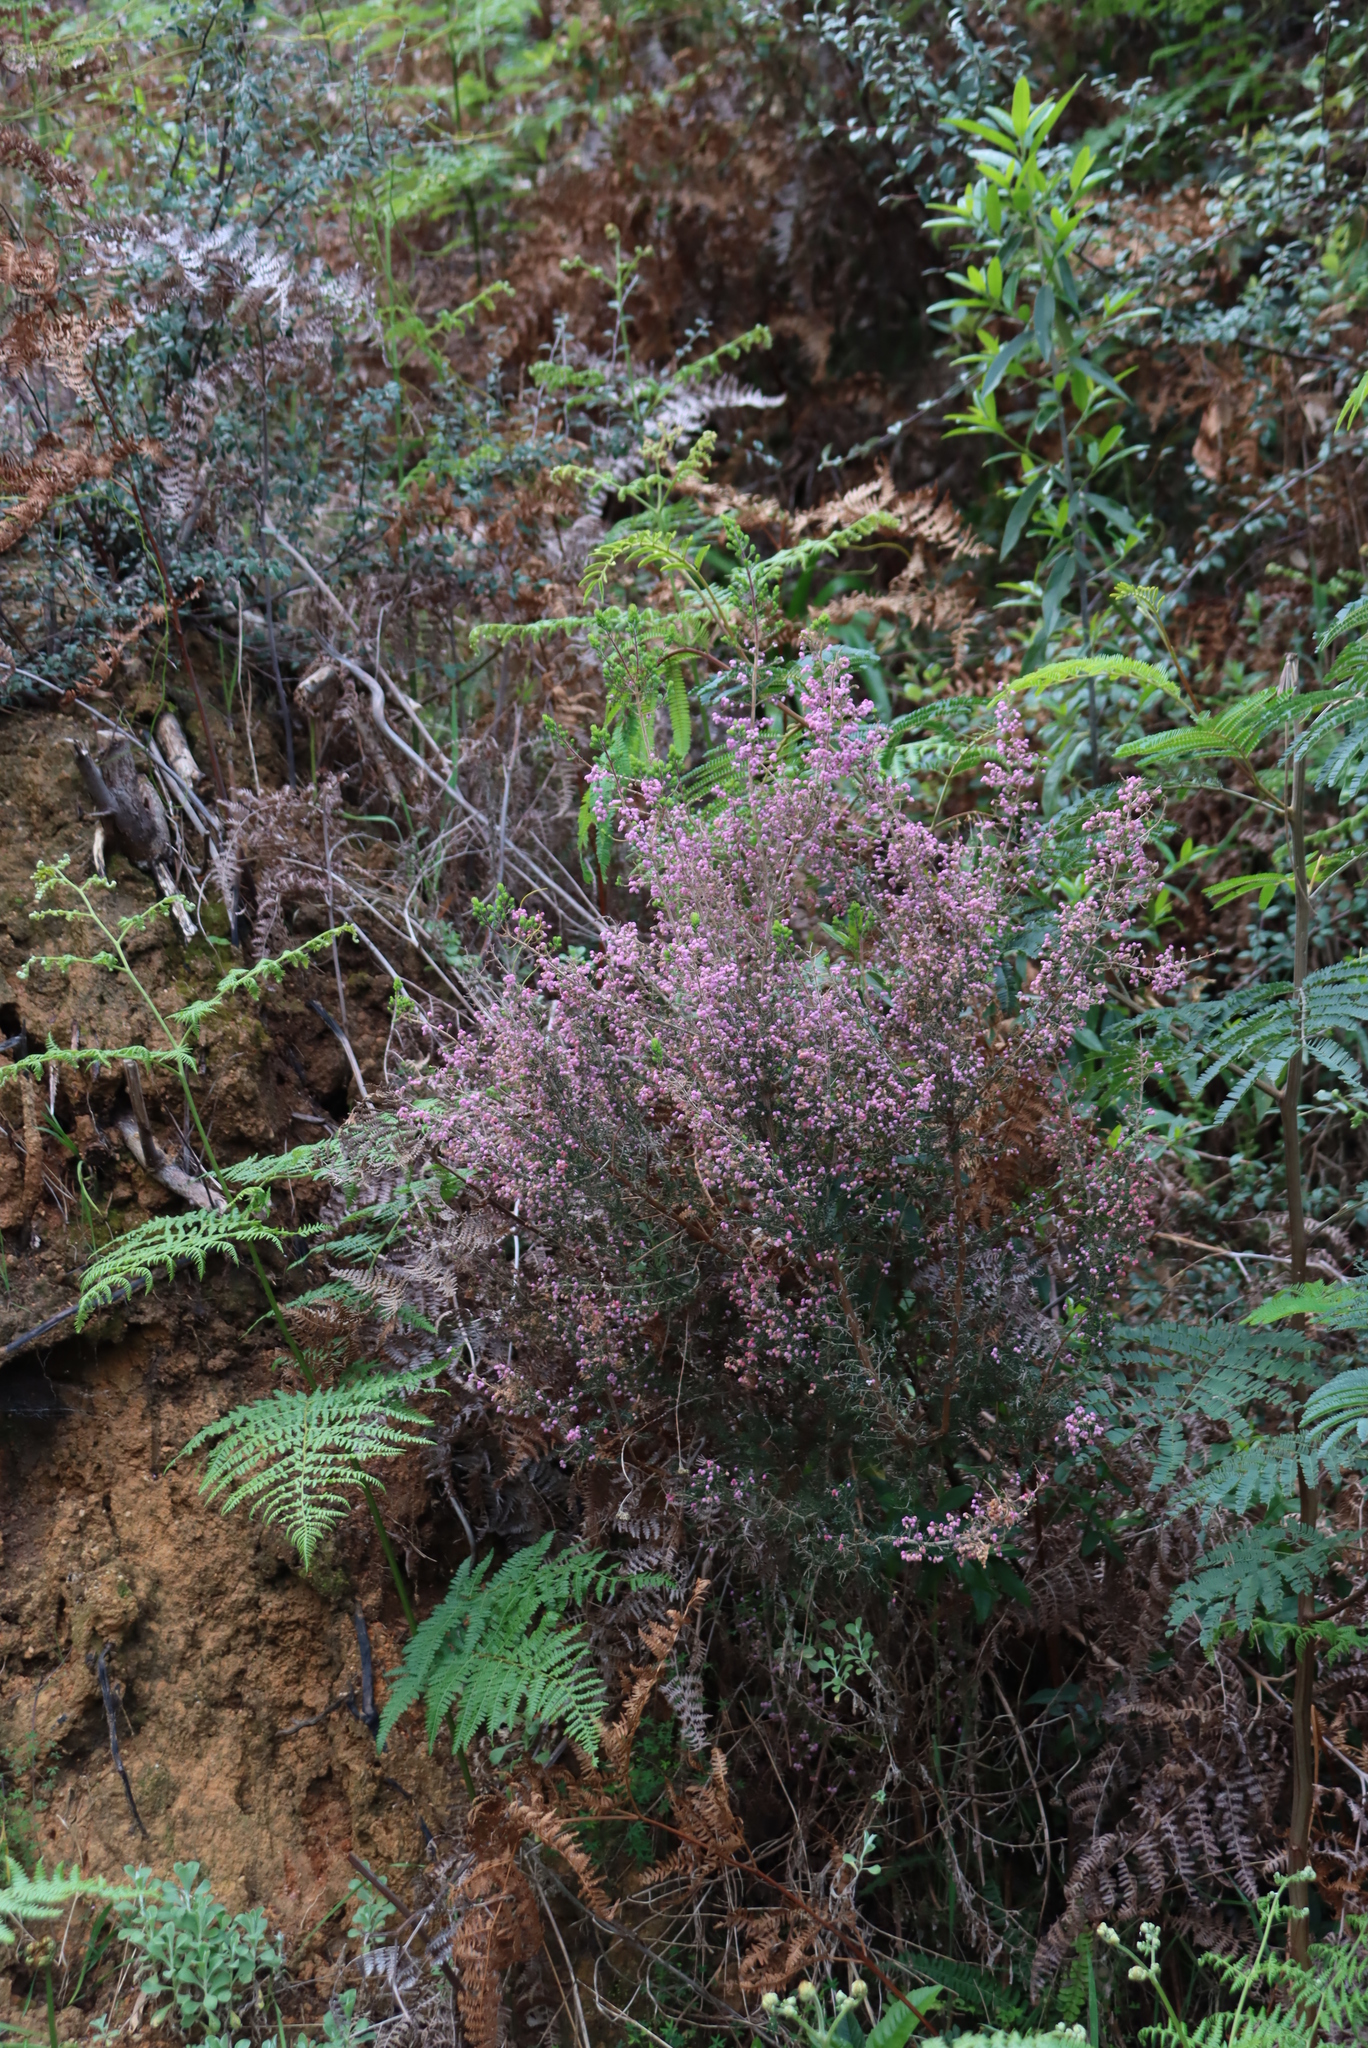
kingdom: Plantae
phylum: Tracheophyta
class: Magnoliopsida
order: Ericales
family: Ericaceae
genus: Erica
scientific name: Erica hirtiflora
